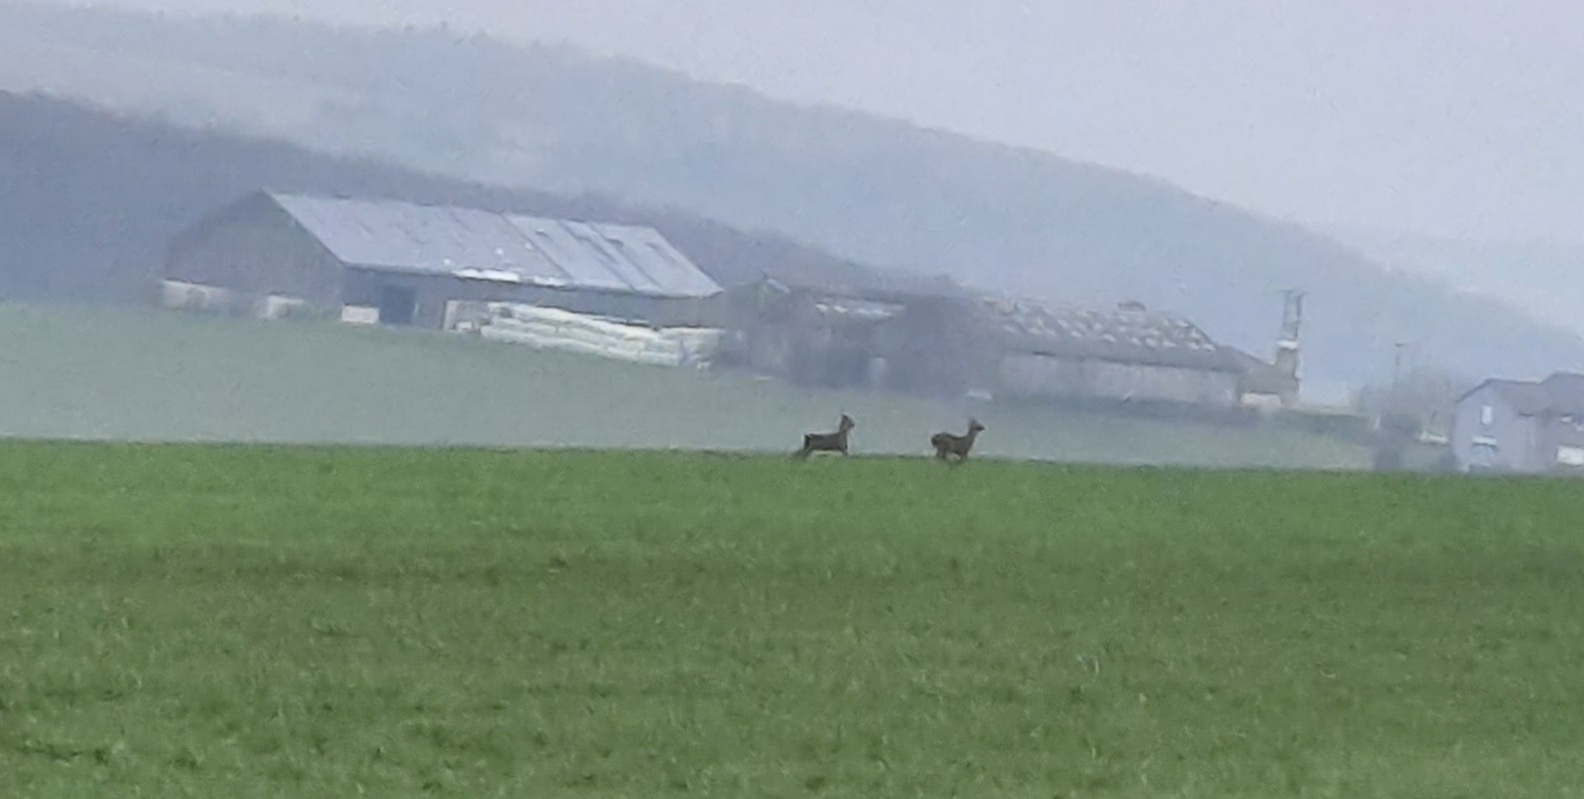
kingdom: Animalia
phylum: Chordata
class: Mammalia
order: Artiodactyla
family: Cervidae
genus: Capreolus
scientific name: Capreolus capreolus
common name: Western roe deer
